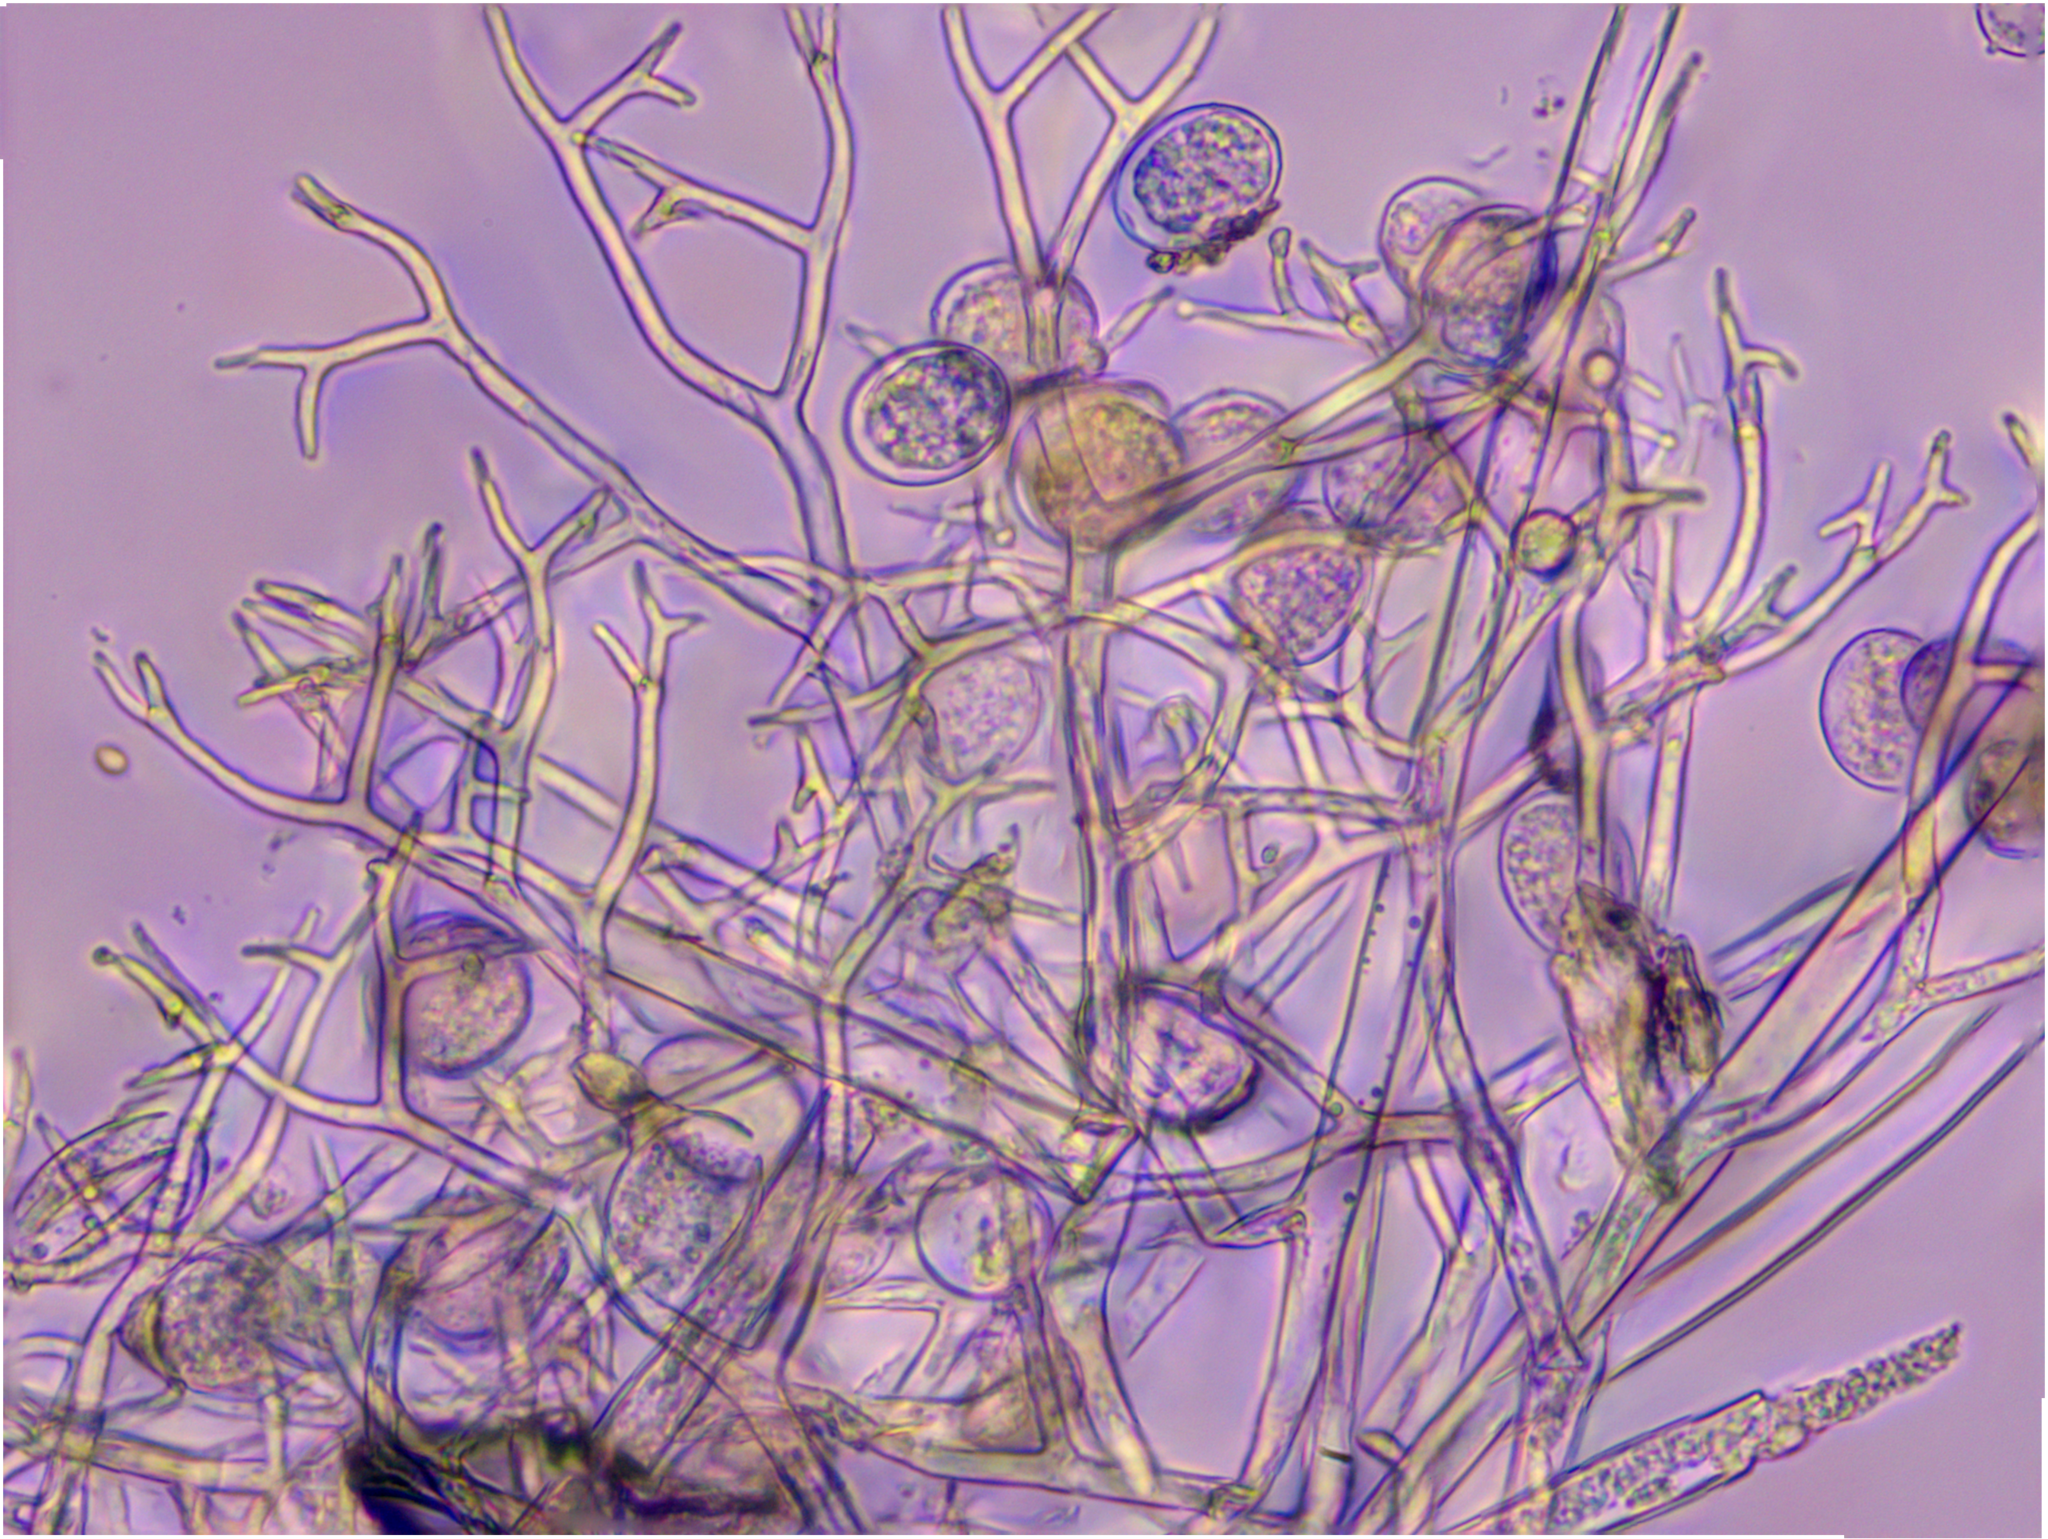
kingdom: Chromista
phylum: Oomycota
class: Peronosporea
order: Peronosporales
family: Peronosporaceae
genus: Peronospora
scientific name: Peronospora alsinearum
